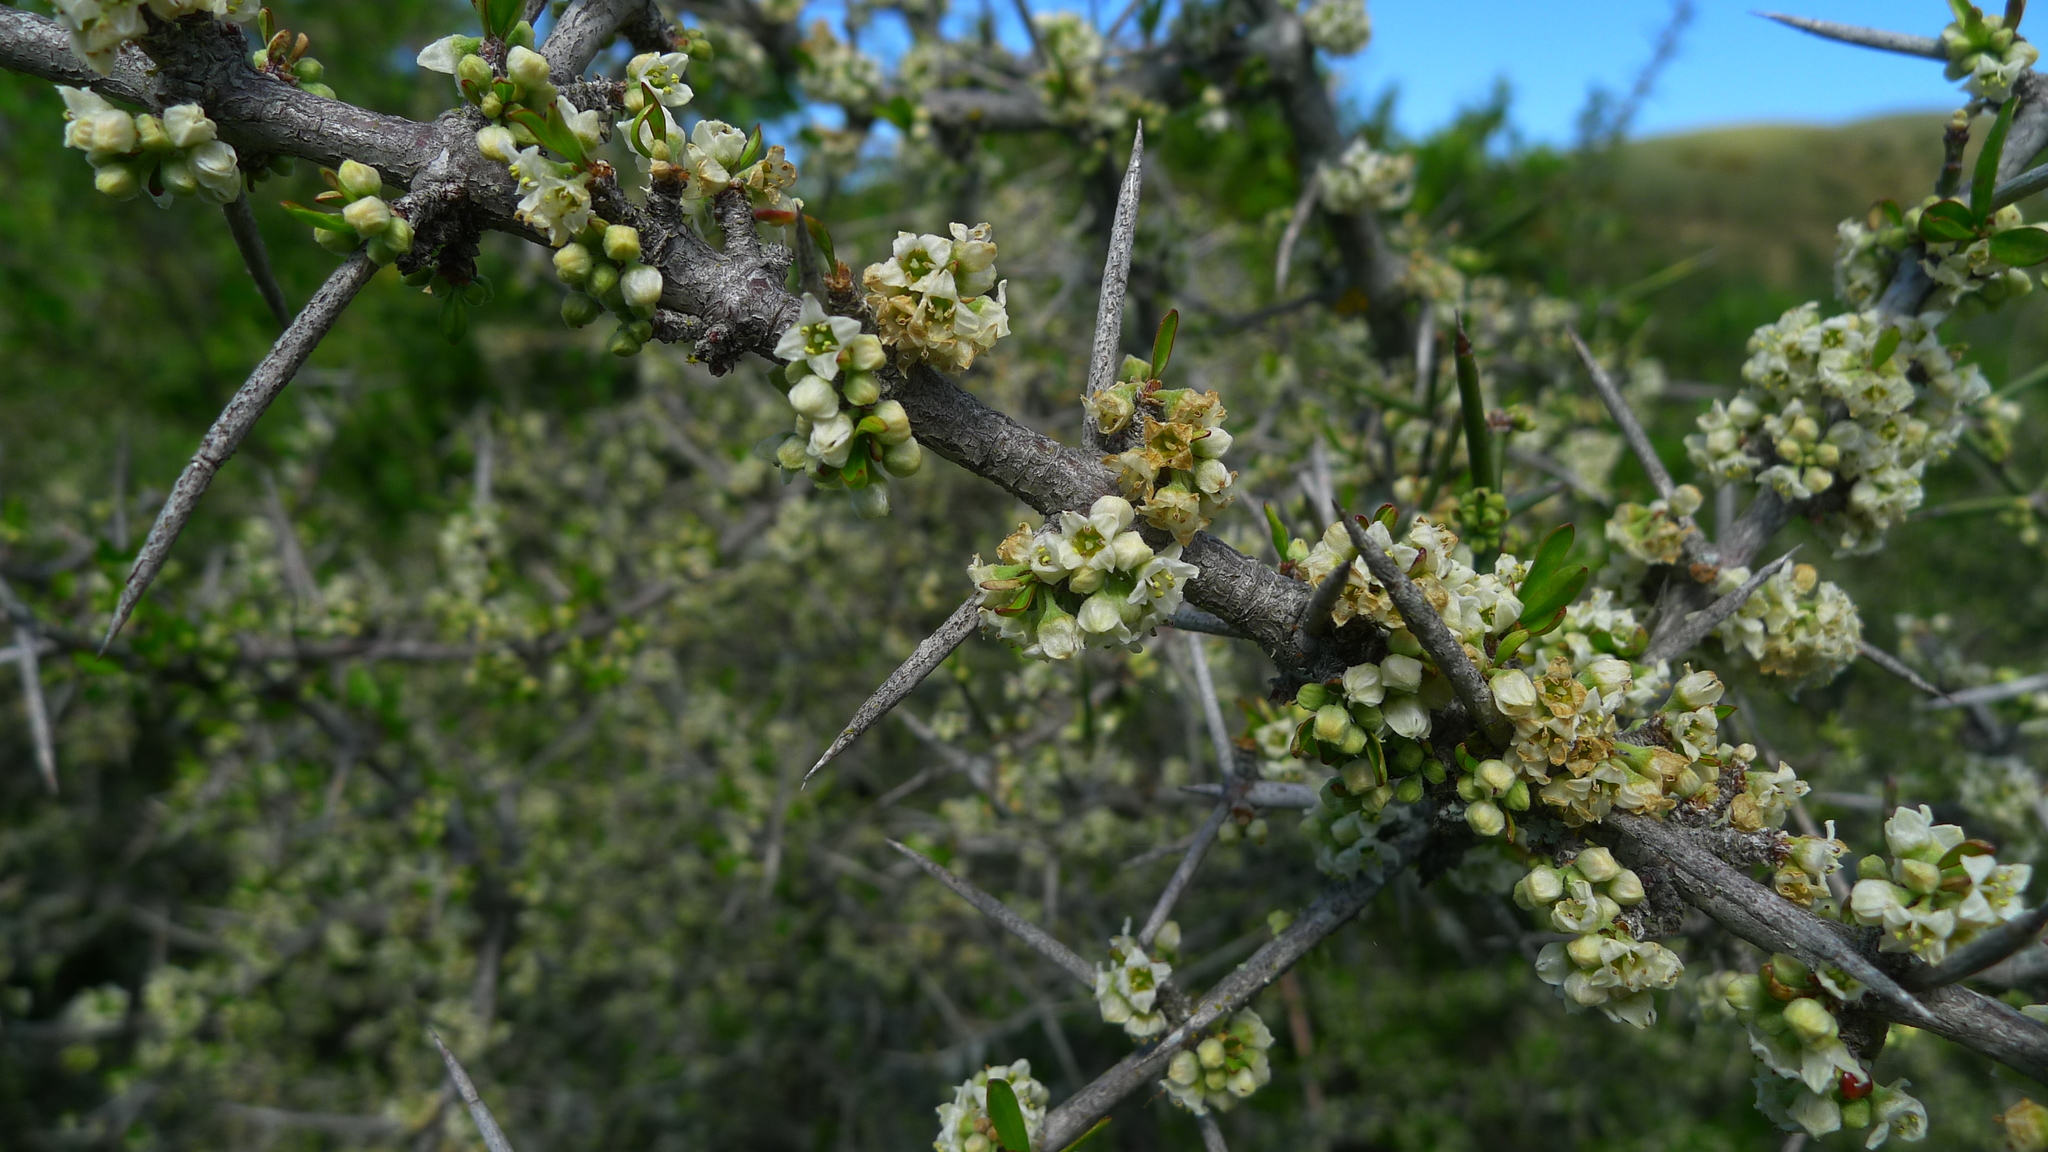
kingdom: Plantae
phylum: Tracheophyta
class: Magnoliopsida
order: Rosales
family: Rhamnaceae
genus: Discaria
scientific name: Discaria toumatou
